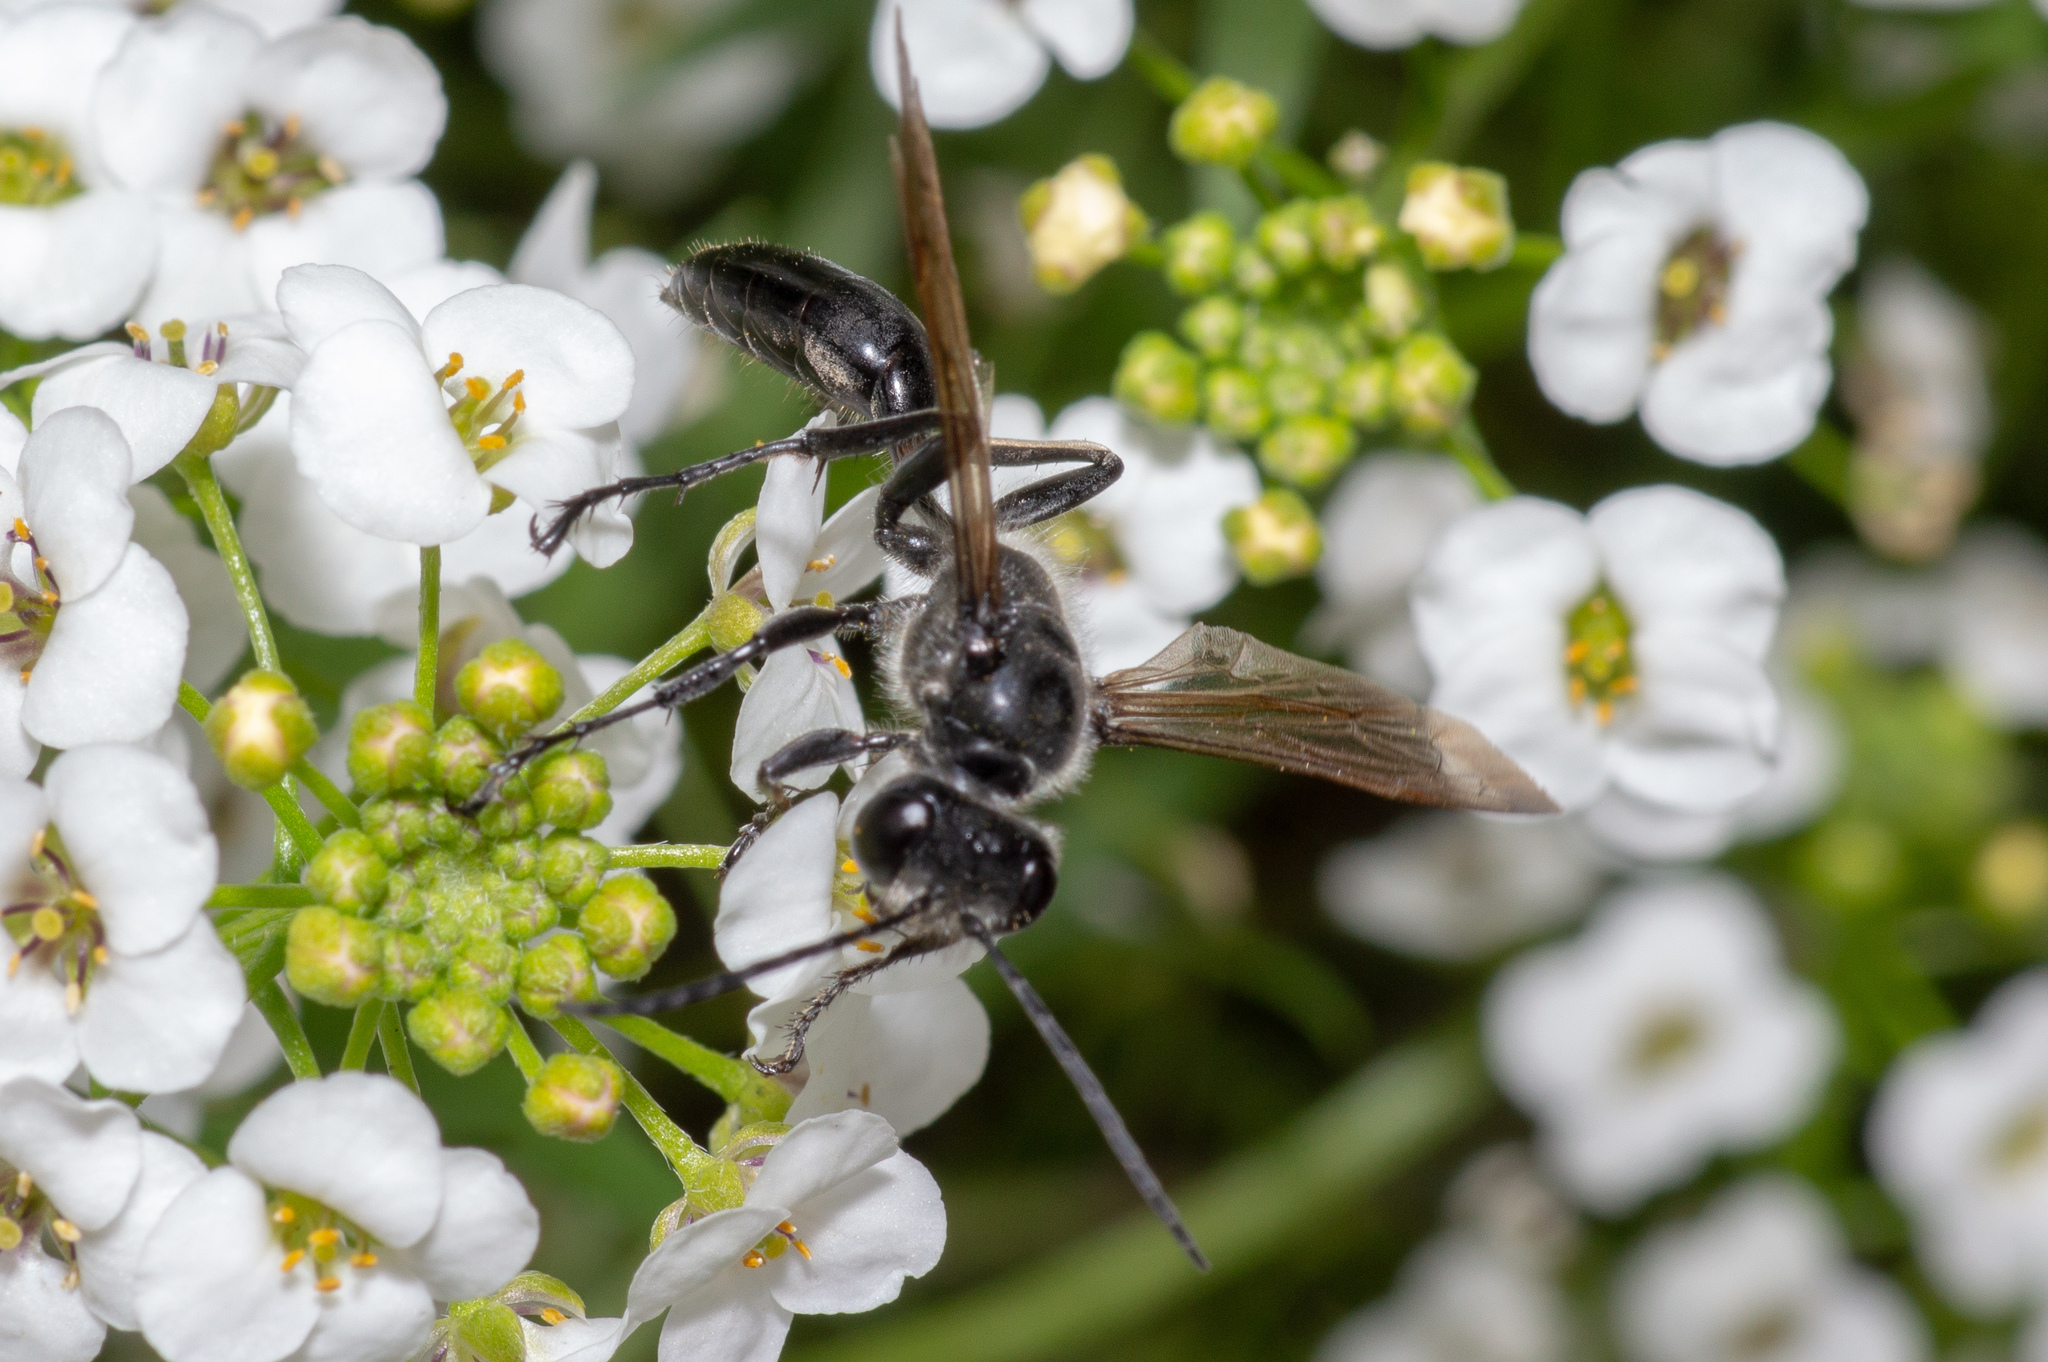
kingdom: Animalia
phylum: Arthropoda
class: Insecta
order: Hymenoptera
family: Sphecidae
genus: Isodontia
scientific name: Isodontia mexicana
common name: Mud dauber
